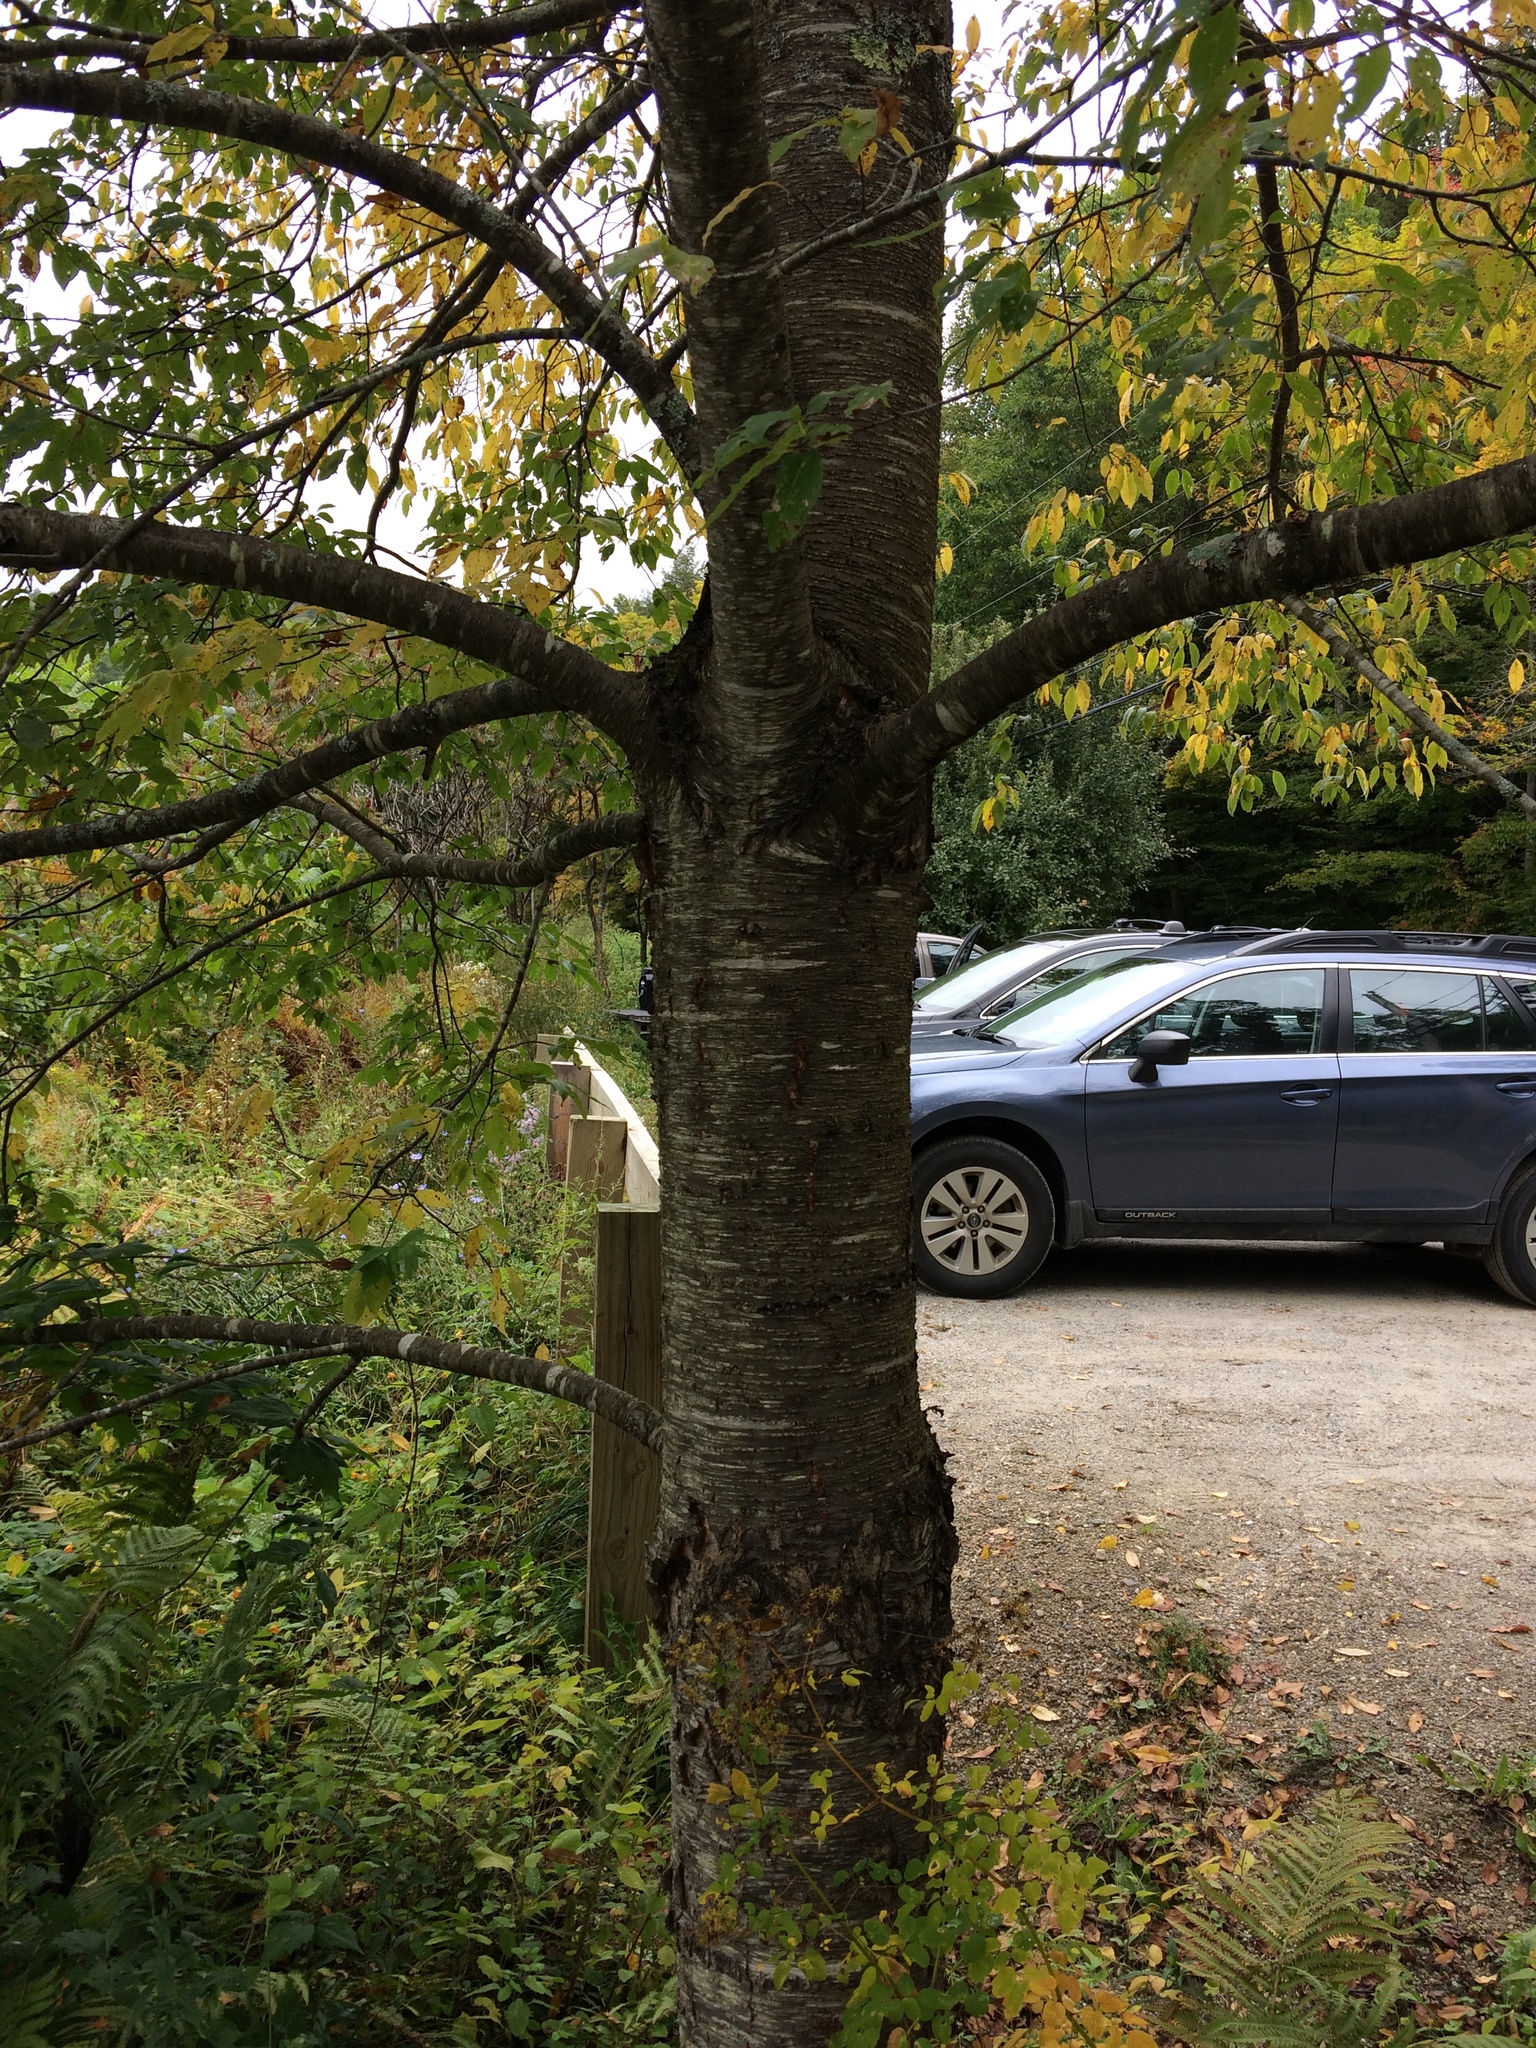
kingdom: Plantae
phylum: Tracheophyta
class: Magnoliopsida
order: Rosales
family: Rosaceae
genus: Prunus
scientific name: Prunus pensylvanica
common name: Pin cherry
